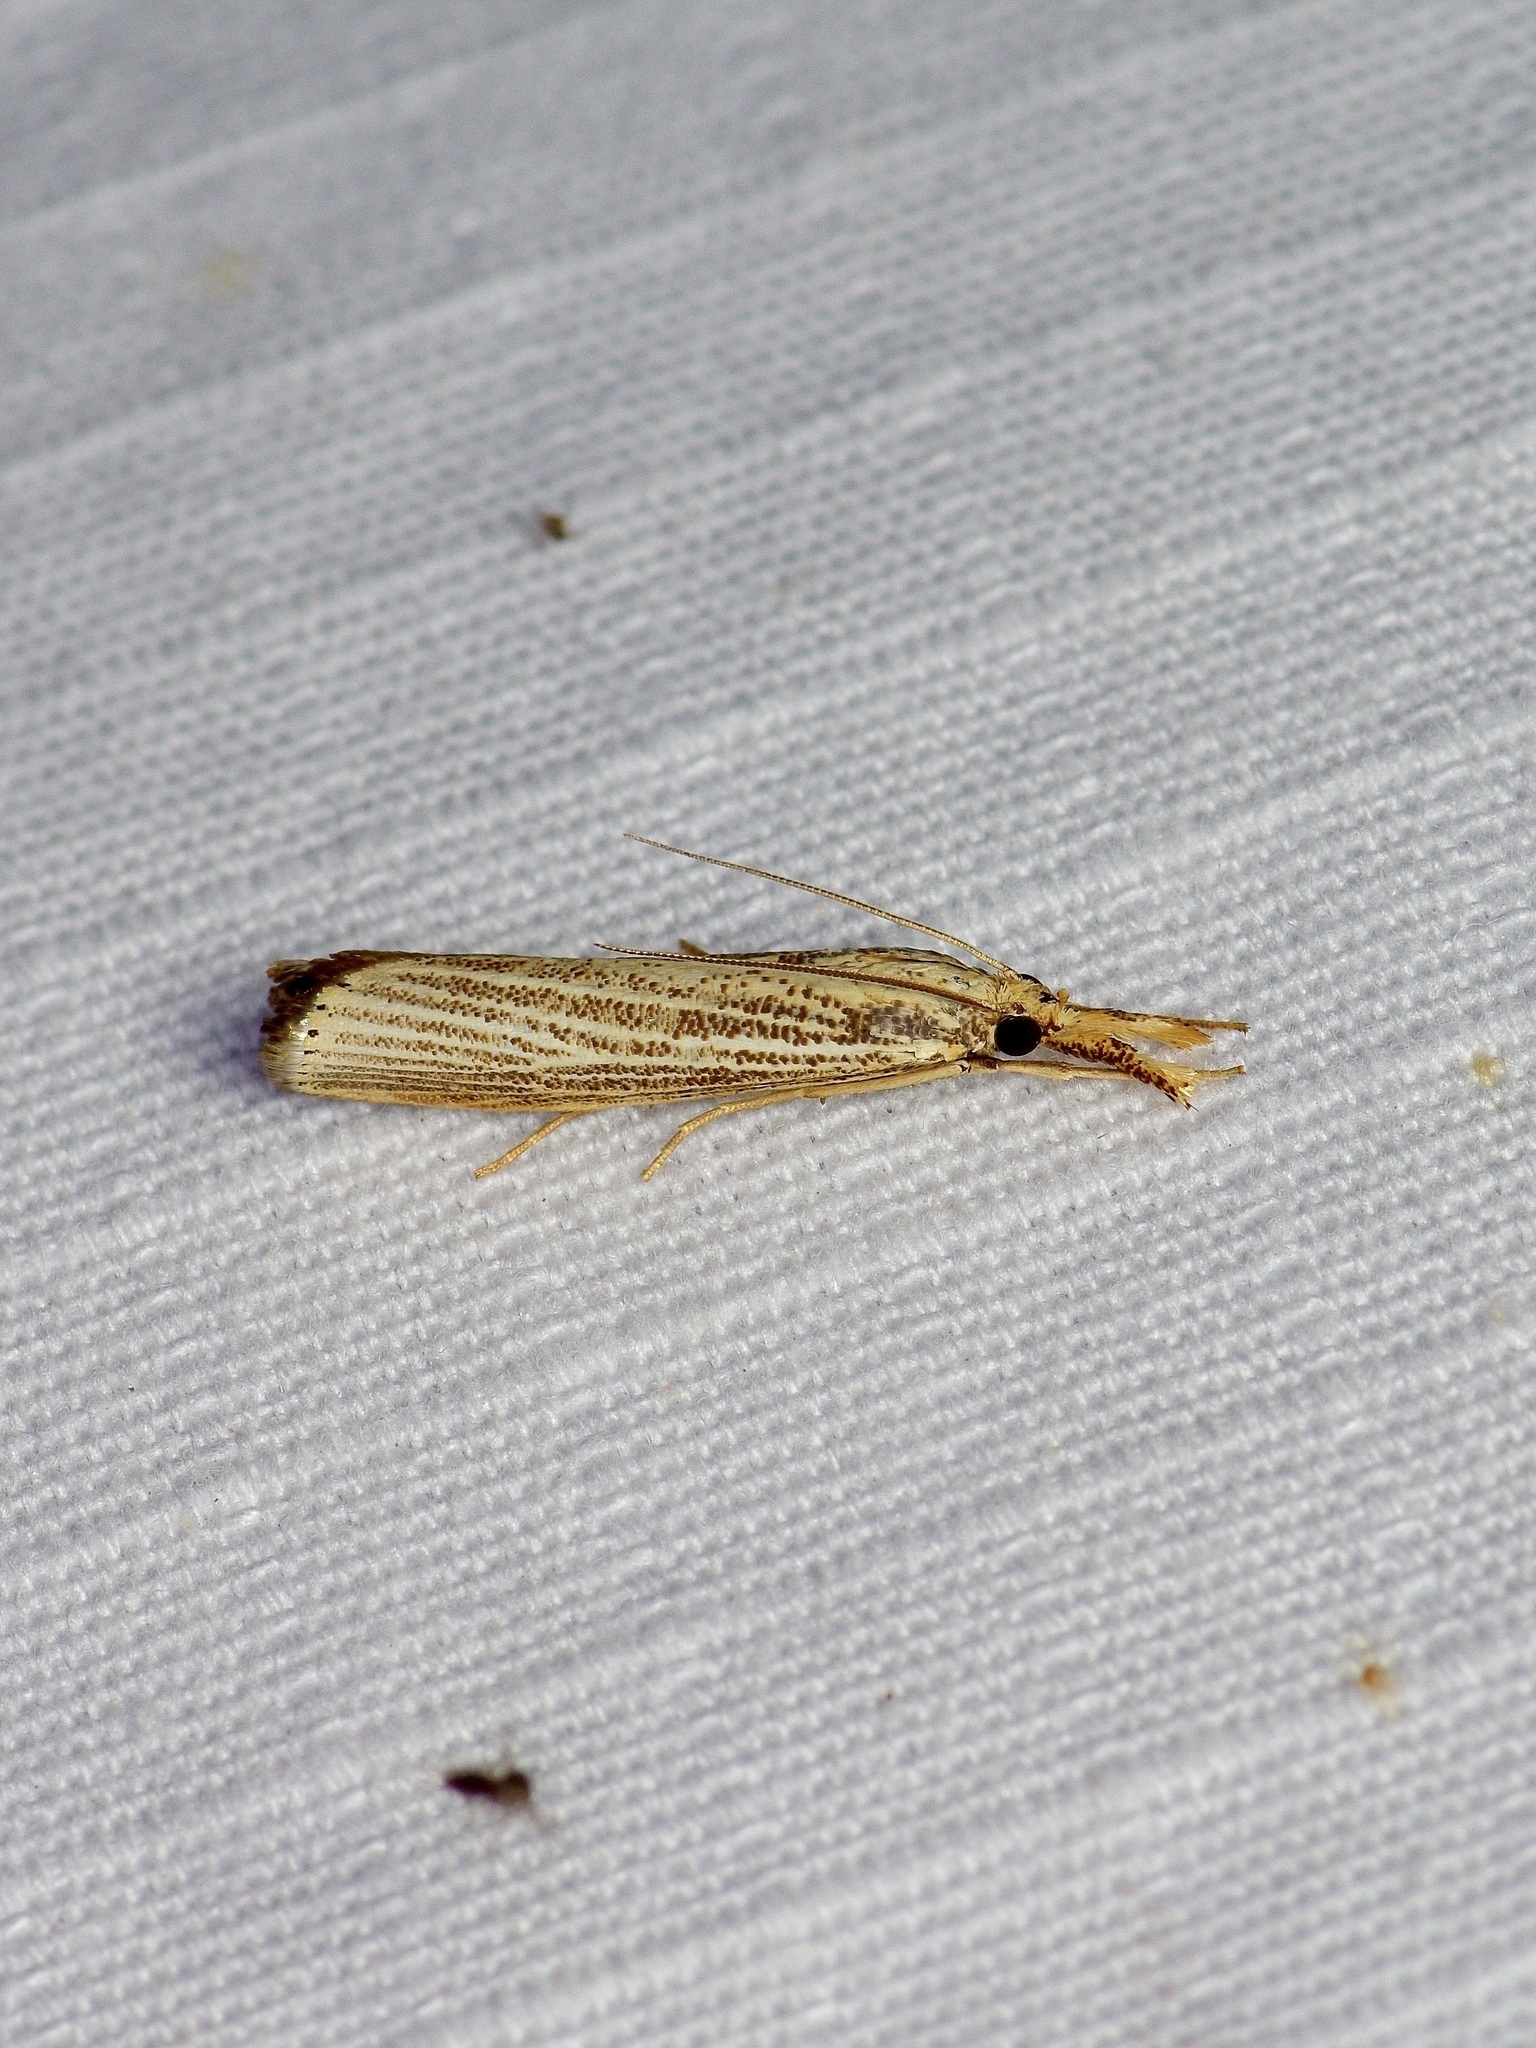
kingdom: Animalia
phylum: Arthropoda
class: Insecta
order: Lepidoptera
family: Crambidae
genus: Agriphila
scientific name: Agriphila vulgivagellus
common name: Vagabond crambus moth
